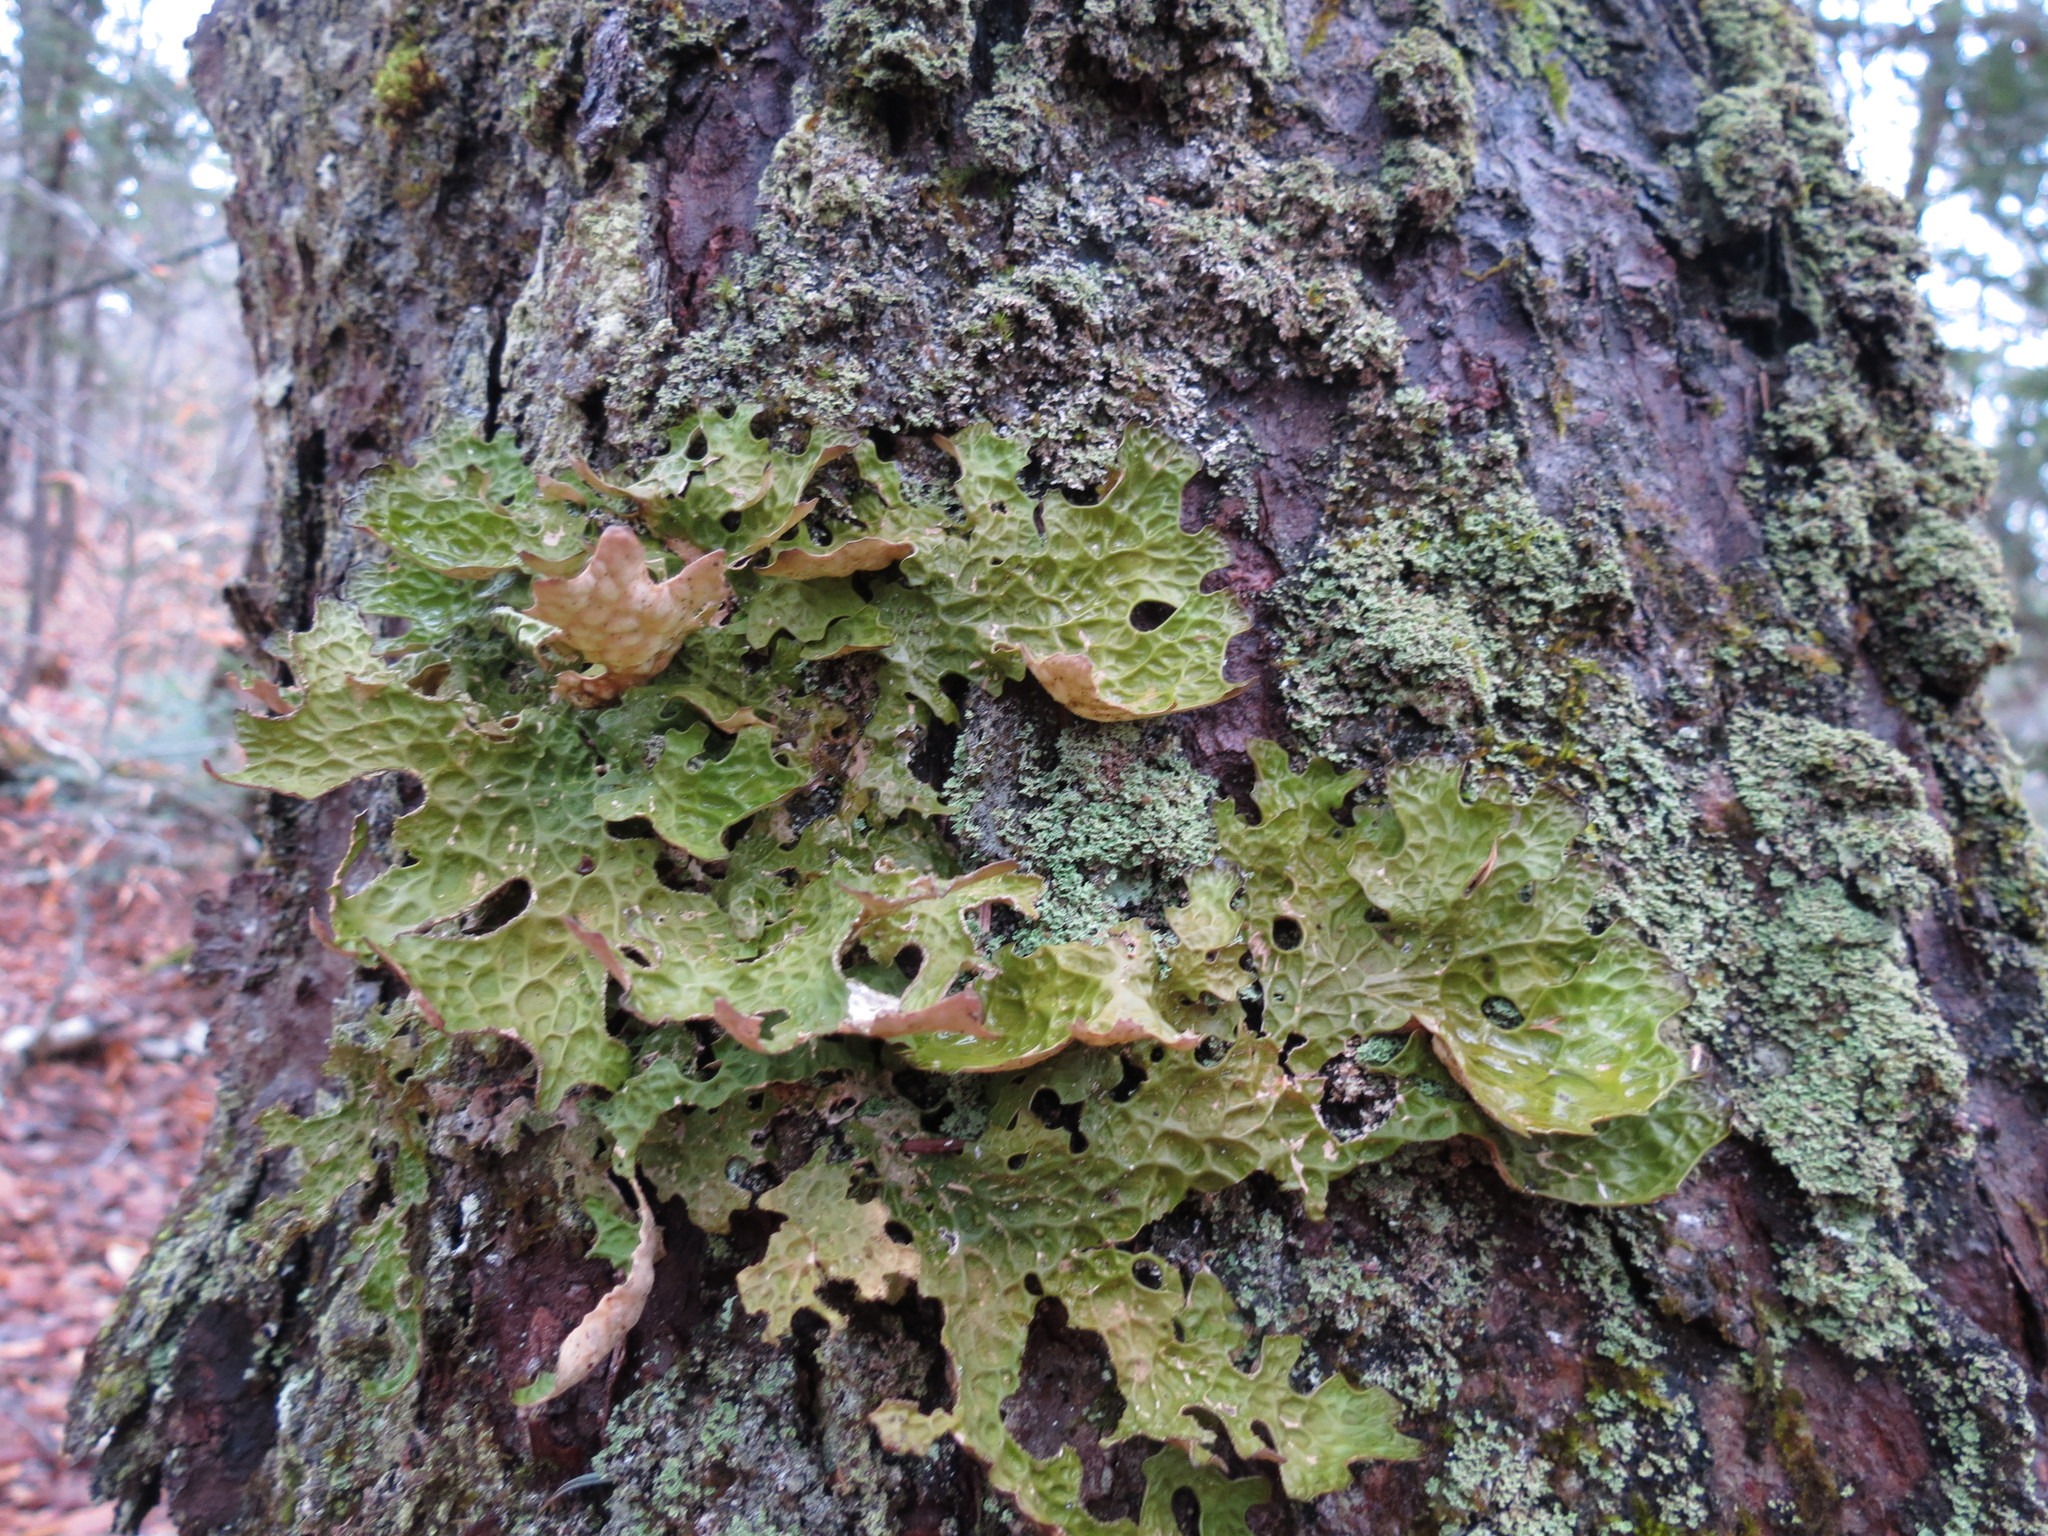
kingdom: Fungi
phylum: Ascomycota
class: Lecanoromycetes
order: Peltigerales
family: Lobariaceae
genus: Lobaria
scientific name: Lobaria pulmonaria
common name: Lungwort
